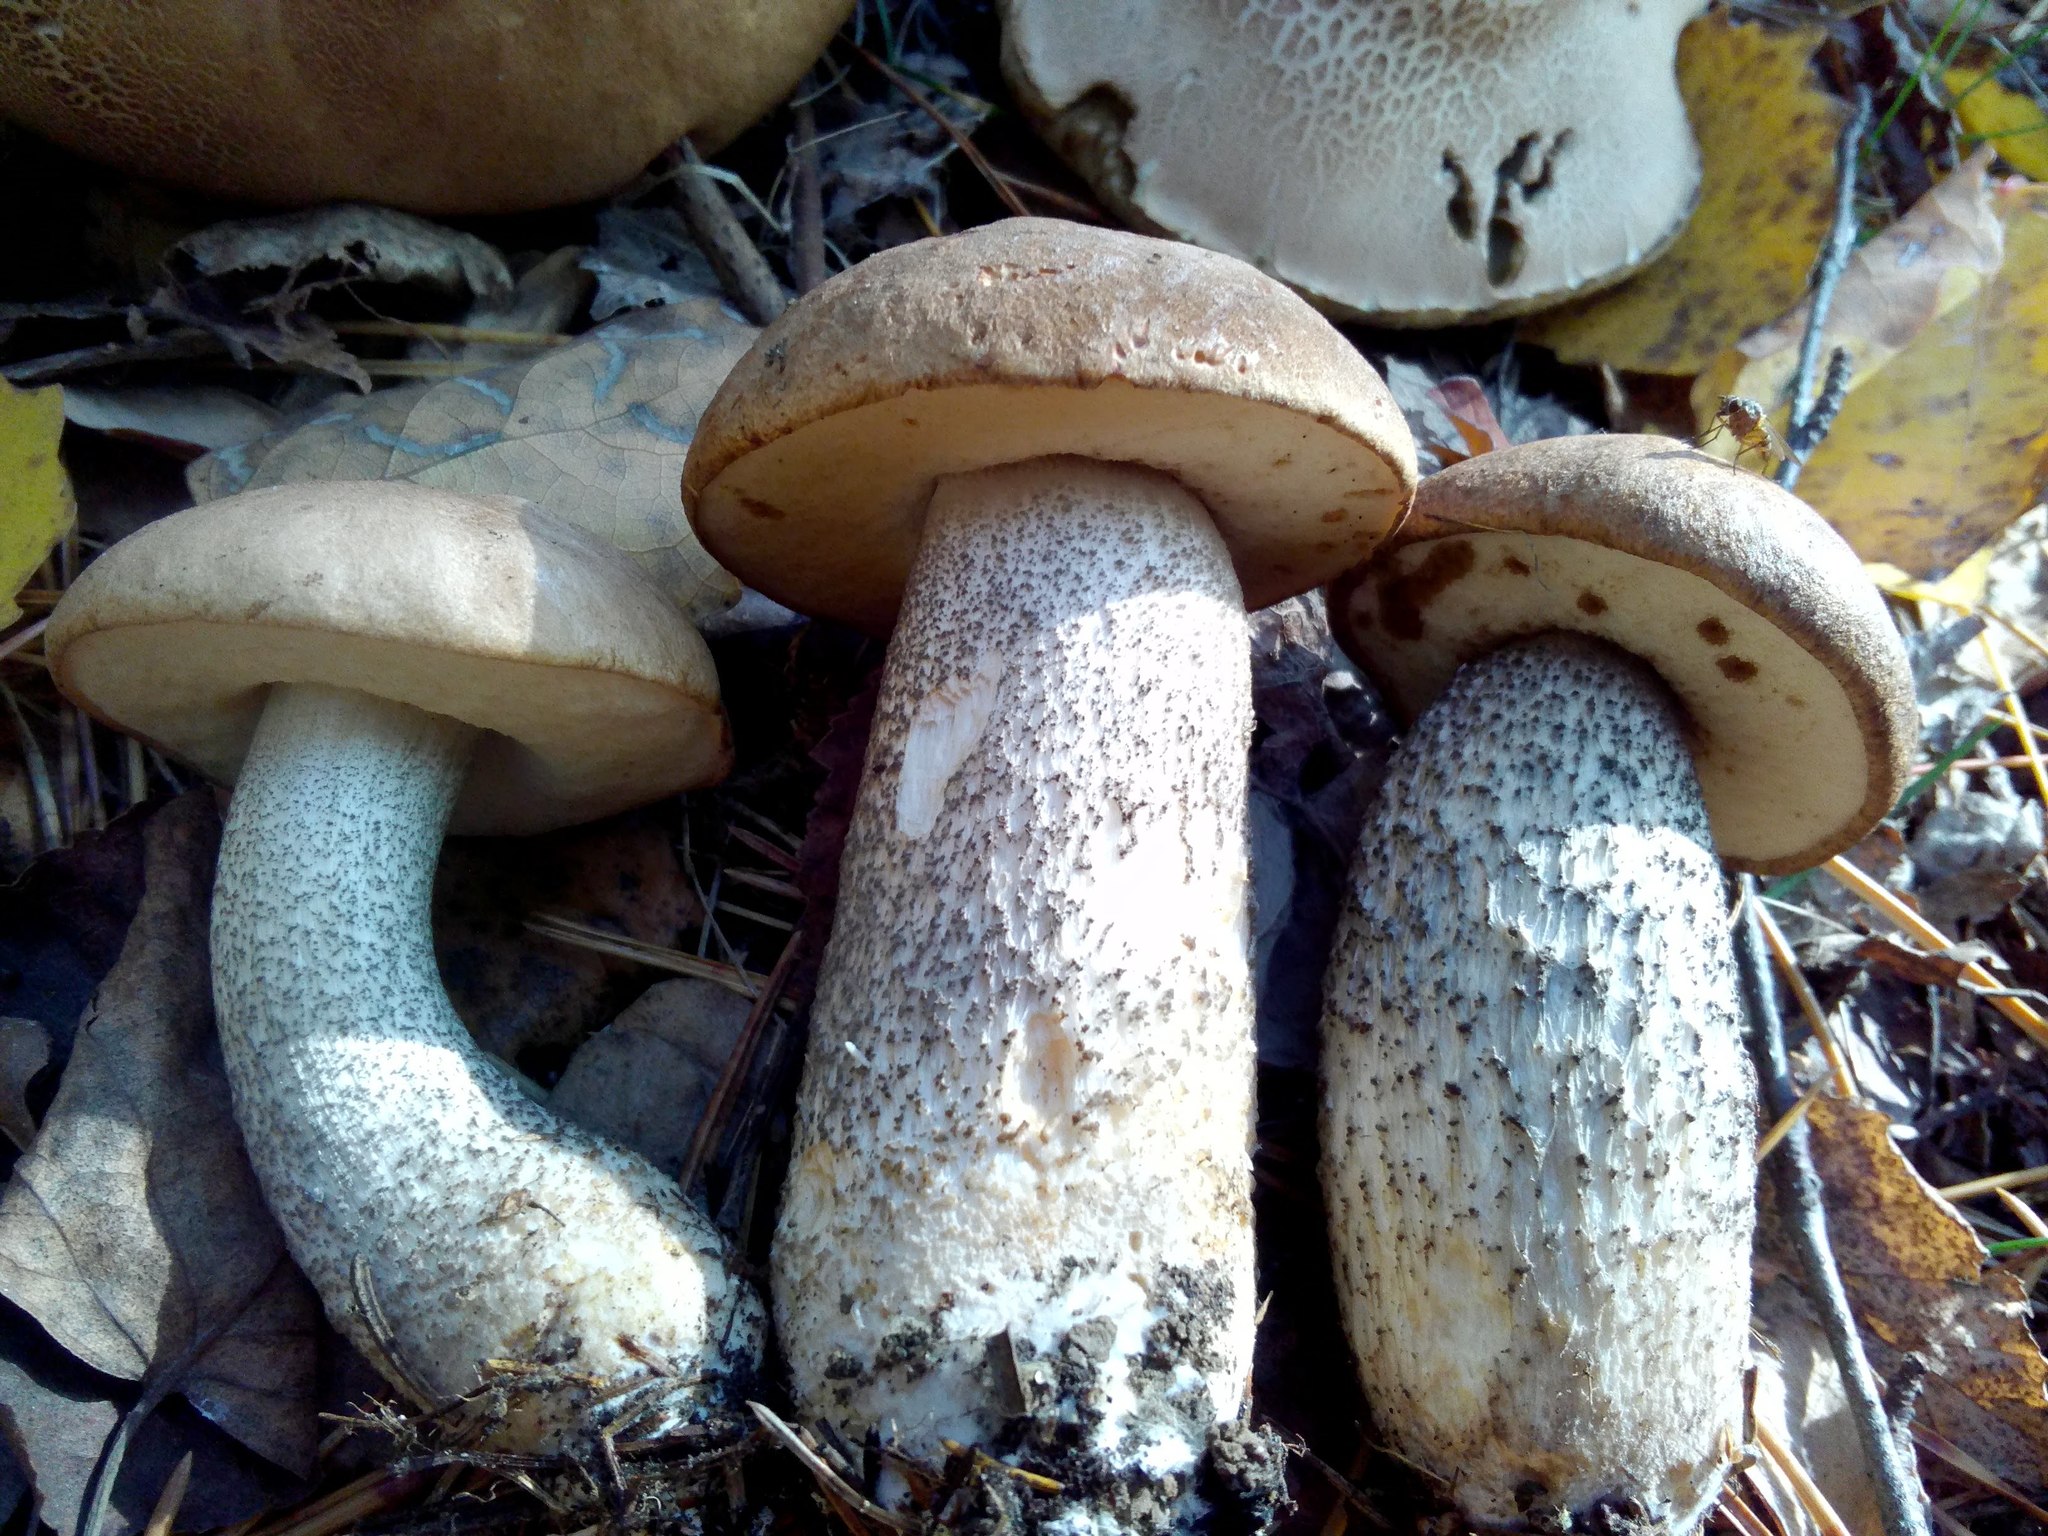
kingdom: Fungi
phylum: Basidiomycota
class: Agaricomycetes
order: Boletales
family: Boletaceae
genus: Leccinum
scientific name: Leccinum scabrum
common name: Blushing bolete
